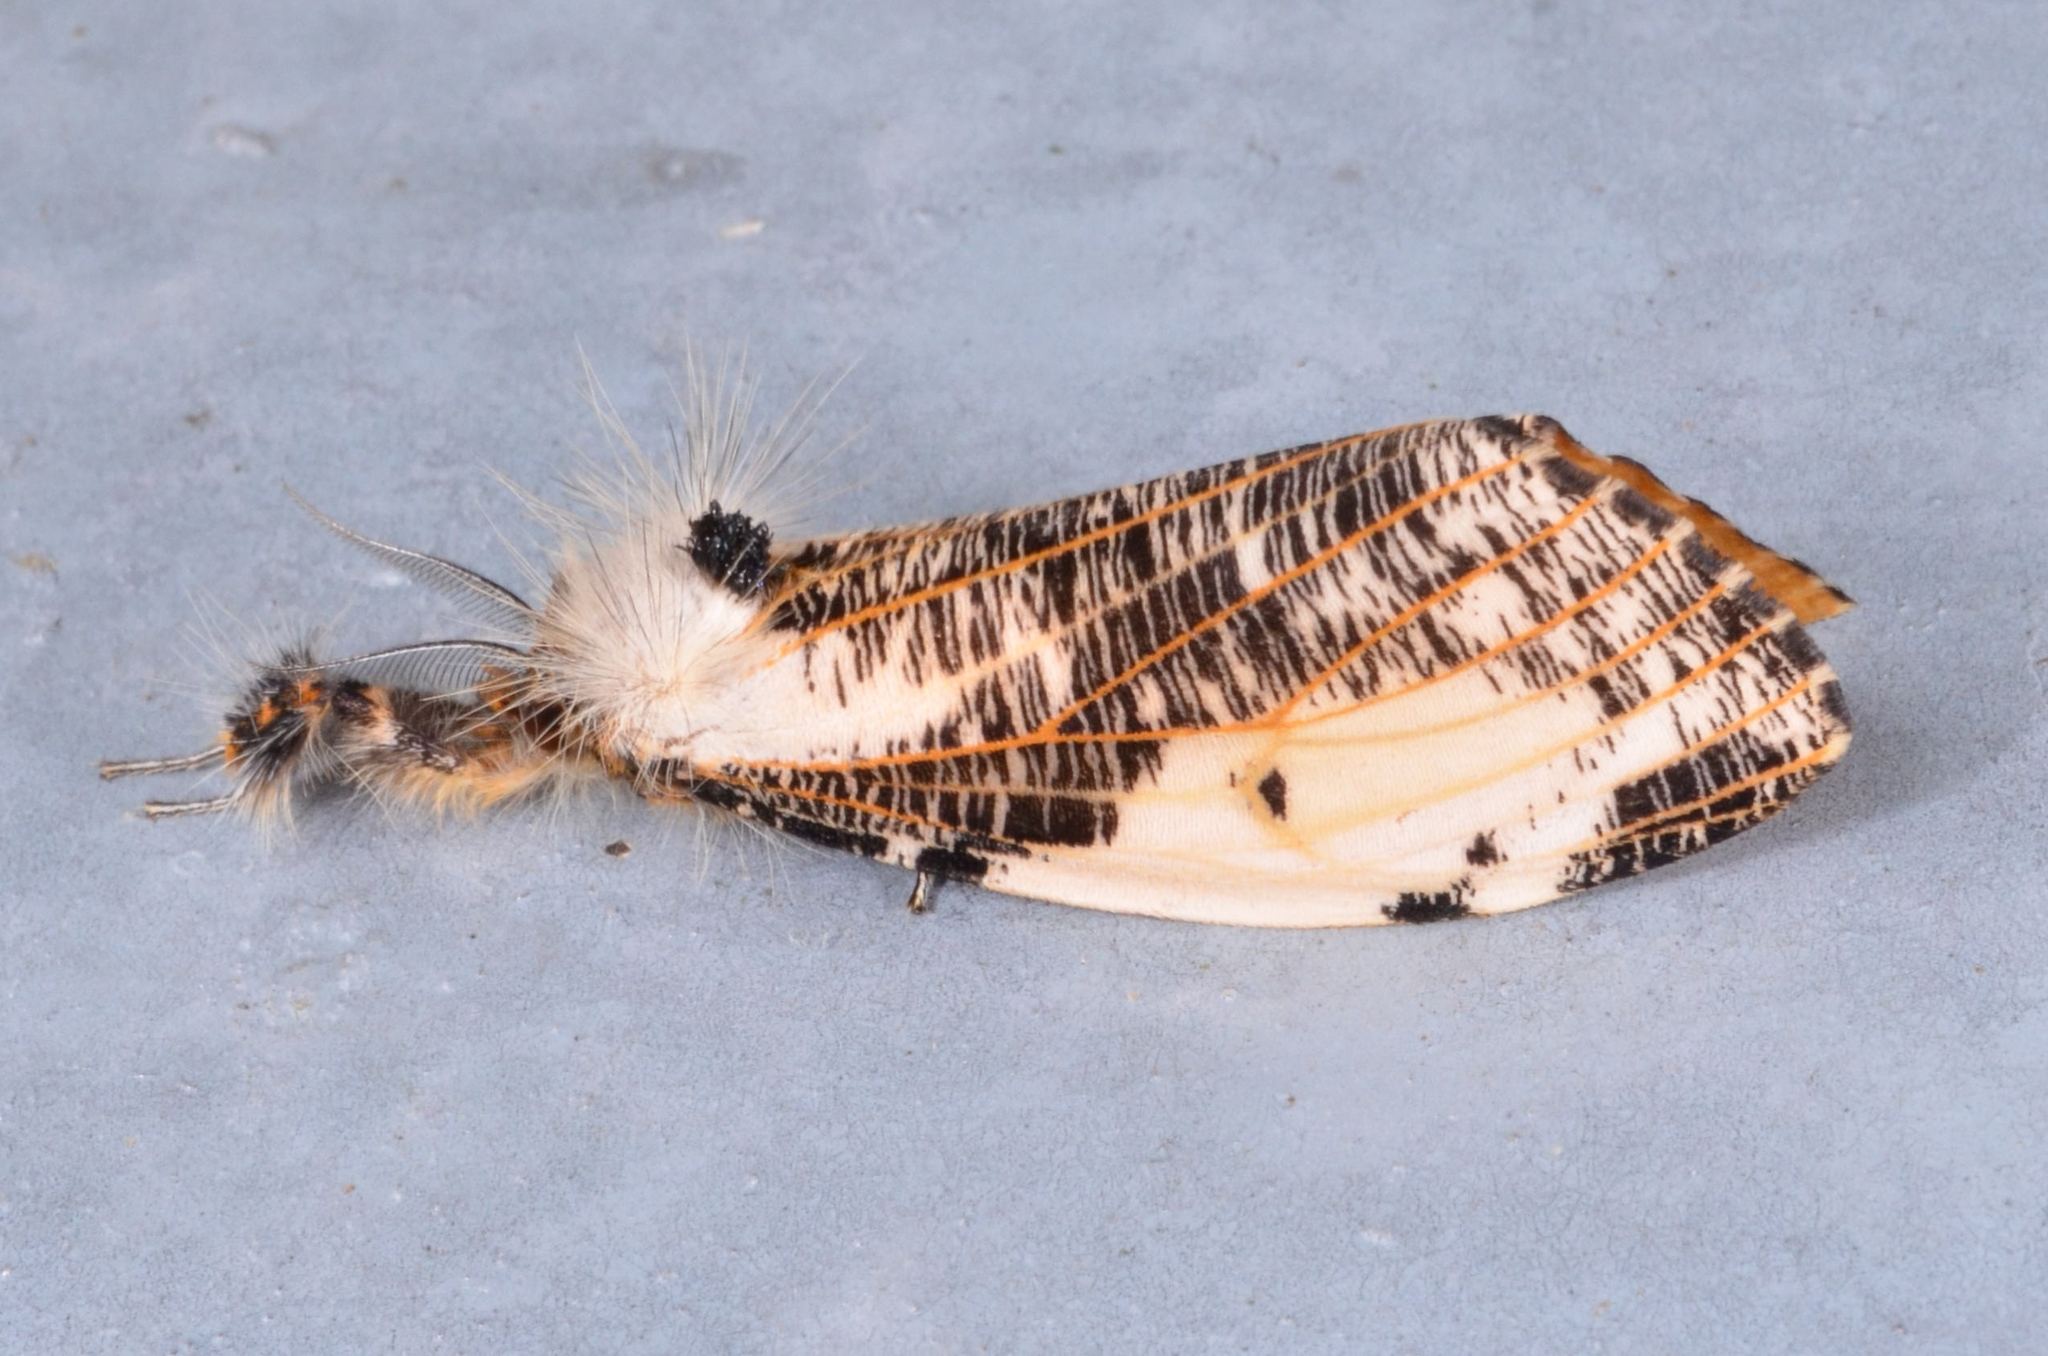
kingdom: Animalia
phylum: Arthropoda
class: Insecta
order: Lepidoptera
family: Erebidae
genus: Locharna
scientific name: Locharna strigipennis
